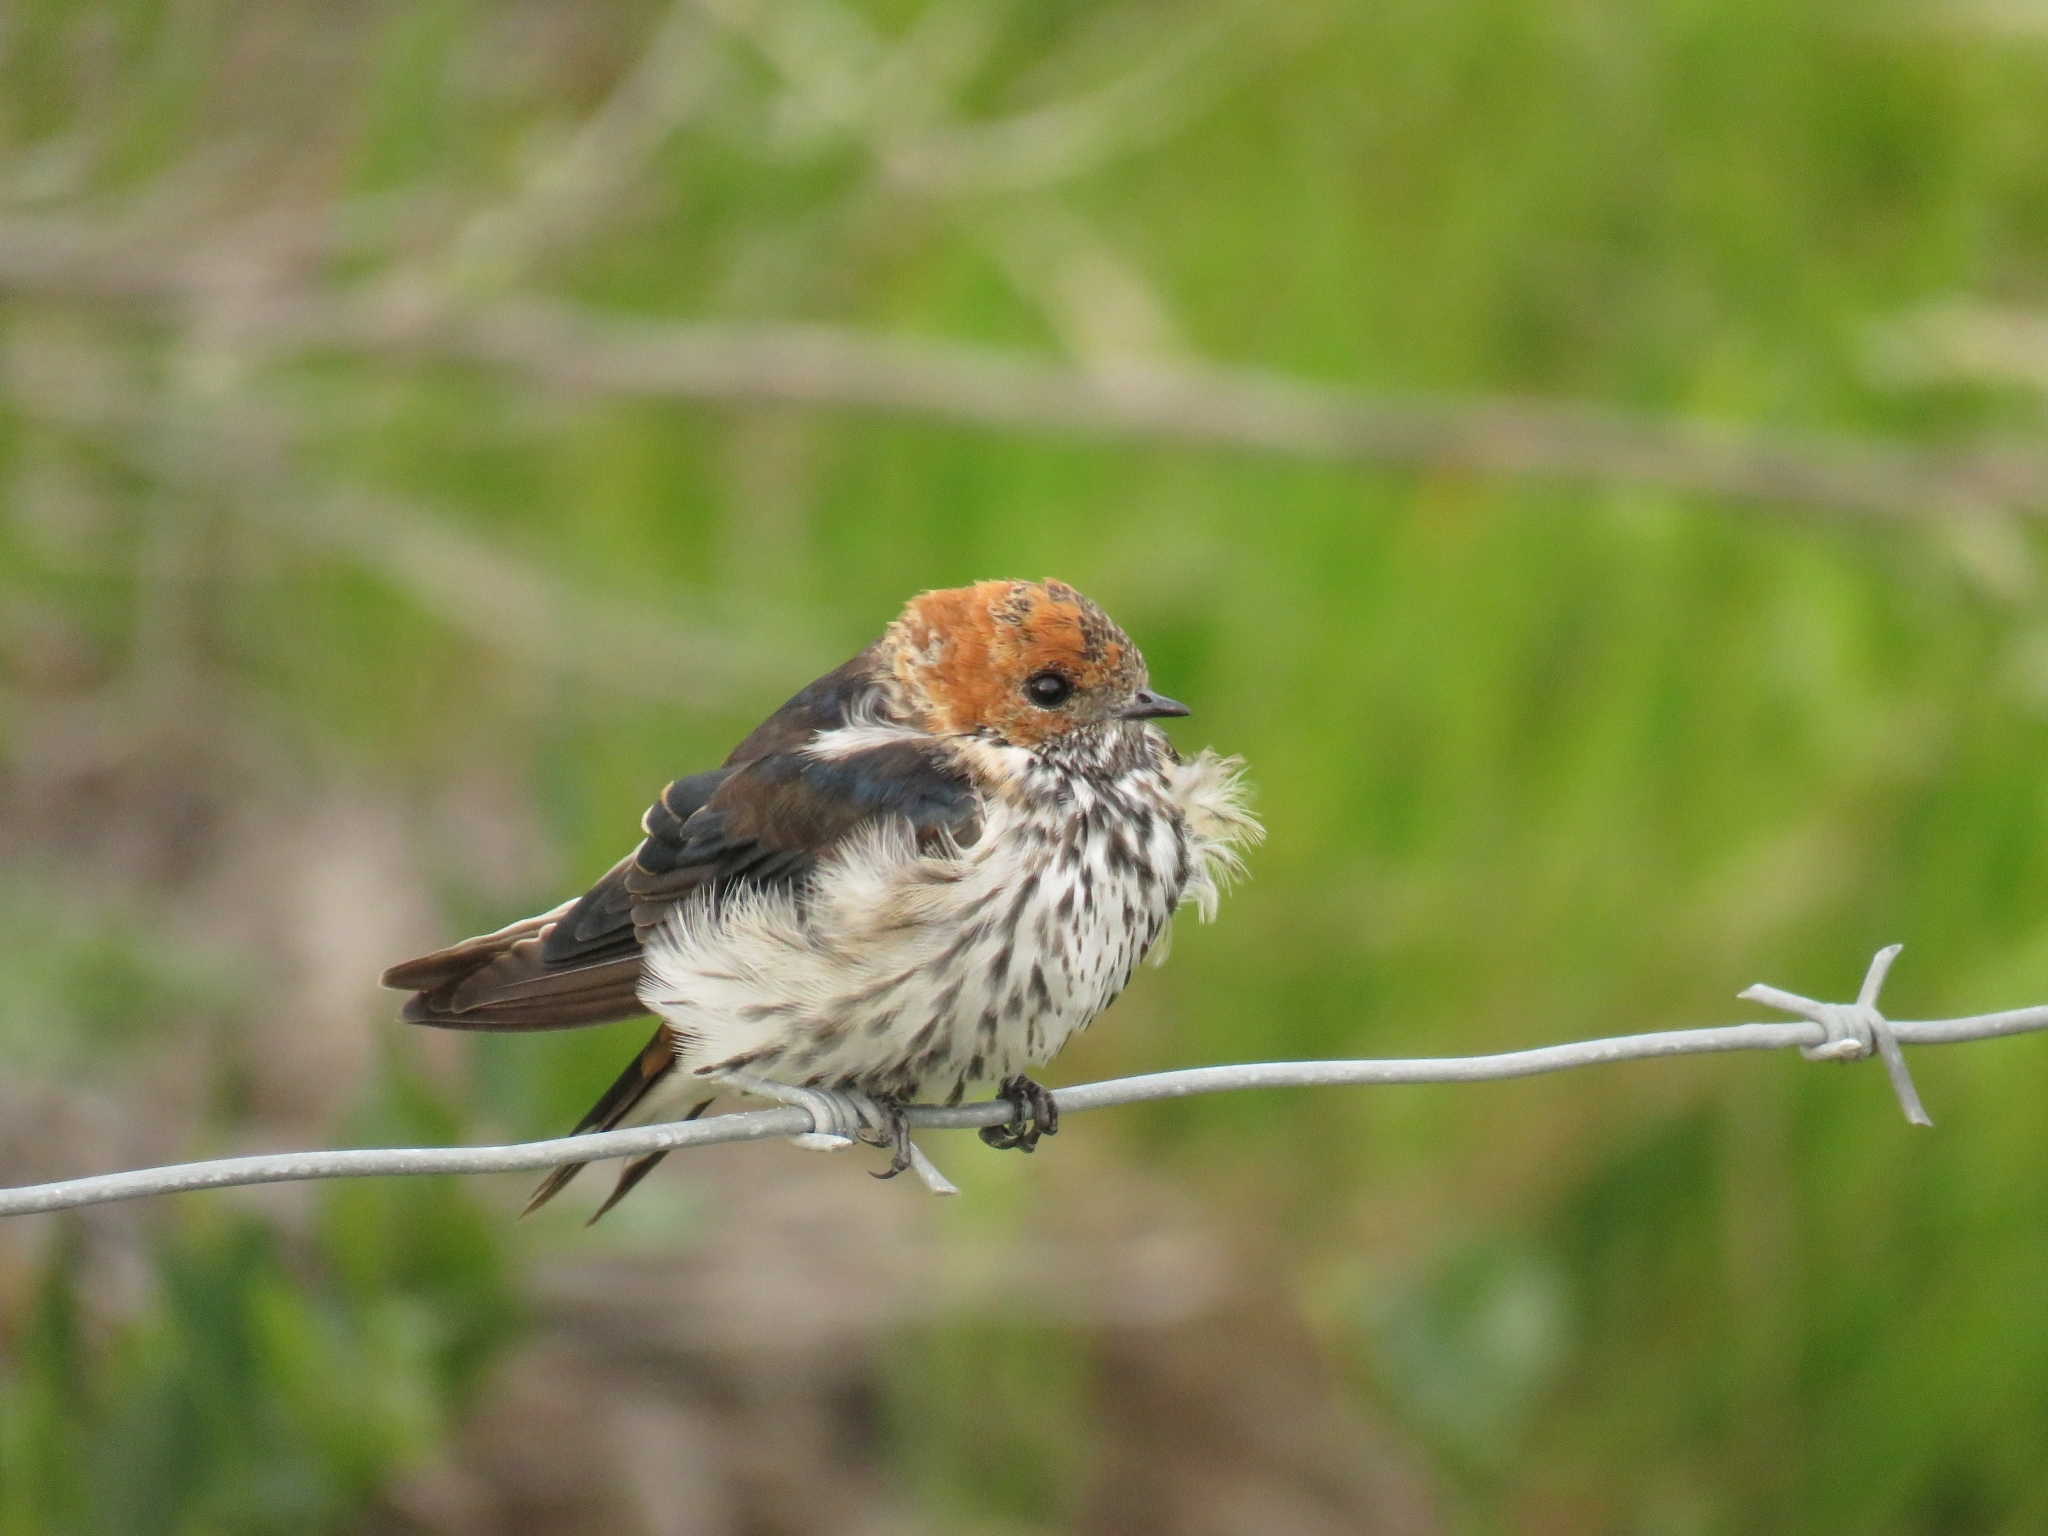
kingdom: Animalia
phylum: Chordata
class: Aves
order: Passeriformes
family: Hirundinidae
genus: Cecropis
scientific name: Cecropis abyssinica
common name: Lesser striped-swallow
